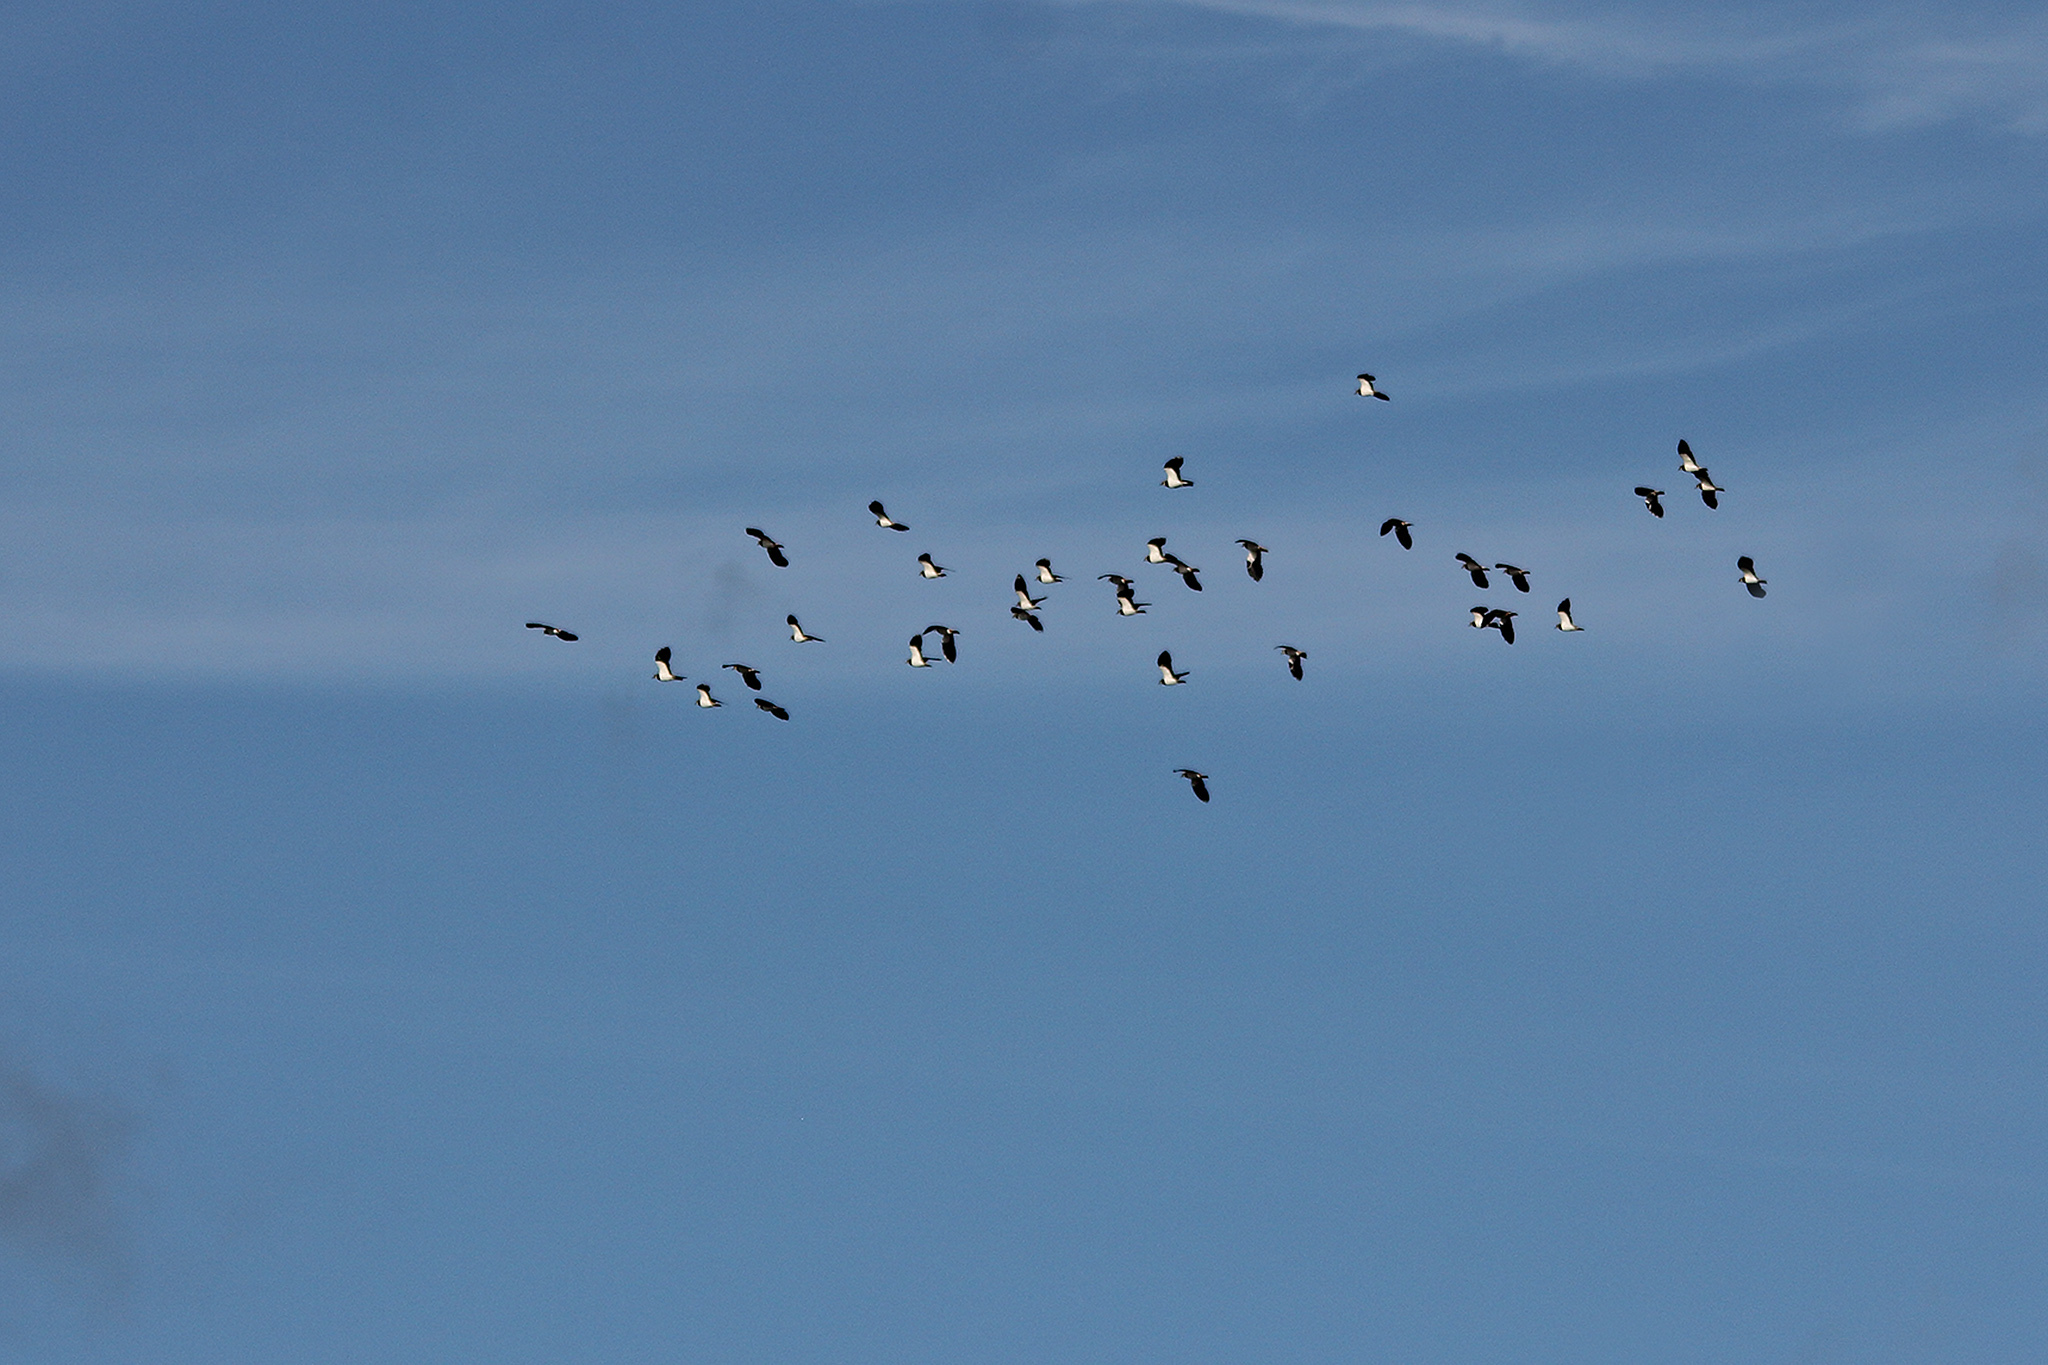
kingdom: Animalia
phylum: Chordata
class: Aves
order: Charadriiformes
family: Charadriidae
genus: Vanellus
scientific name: Vanellus vanellus
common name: Northern lapwing
